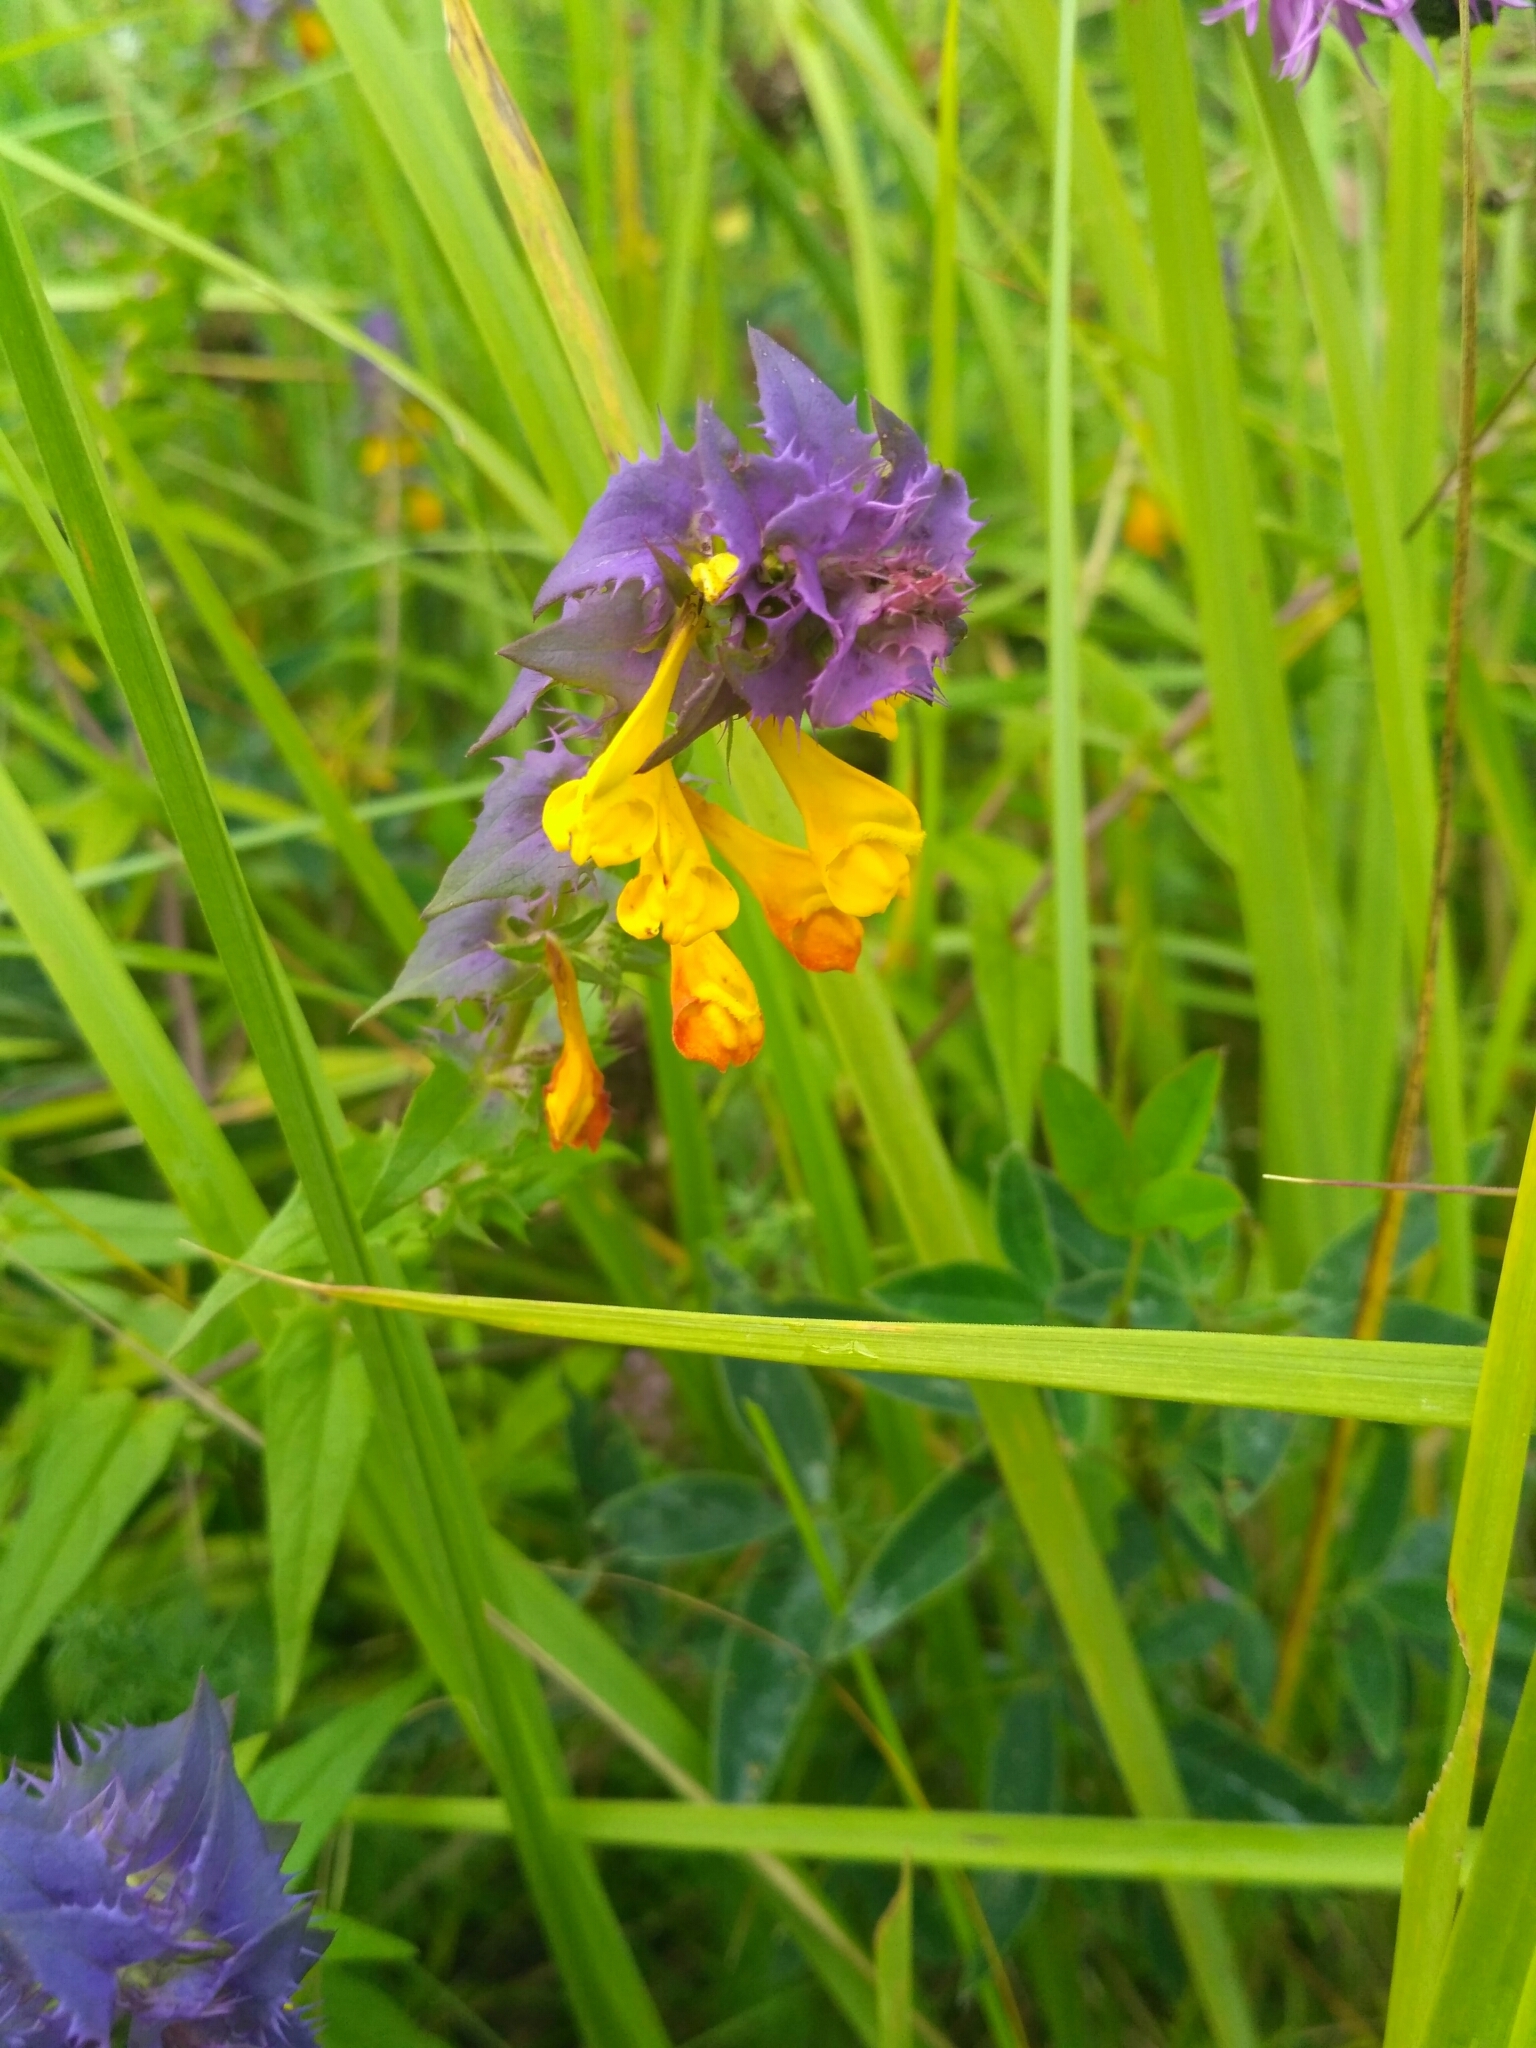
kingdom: Plantae
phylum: Tracheophyta
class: Magnoliopsida
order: Lamiales
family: Orobanchaceae
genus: Melampyrum
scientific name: Melampyrum nemorosum
